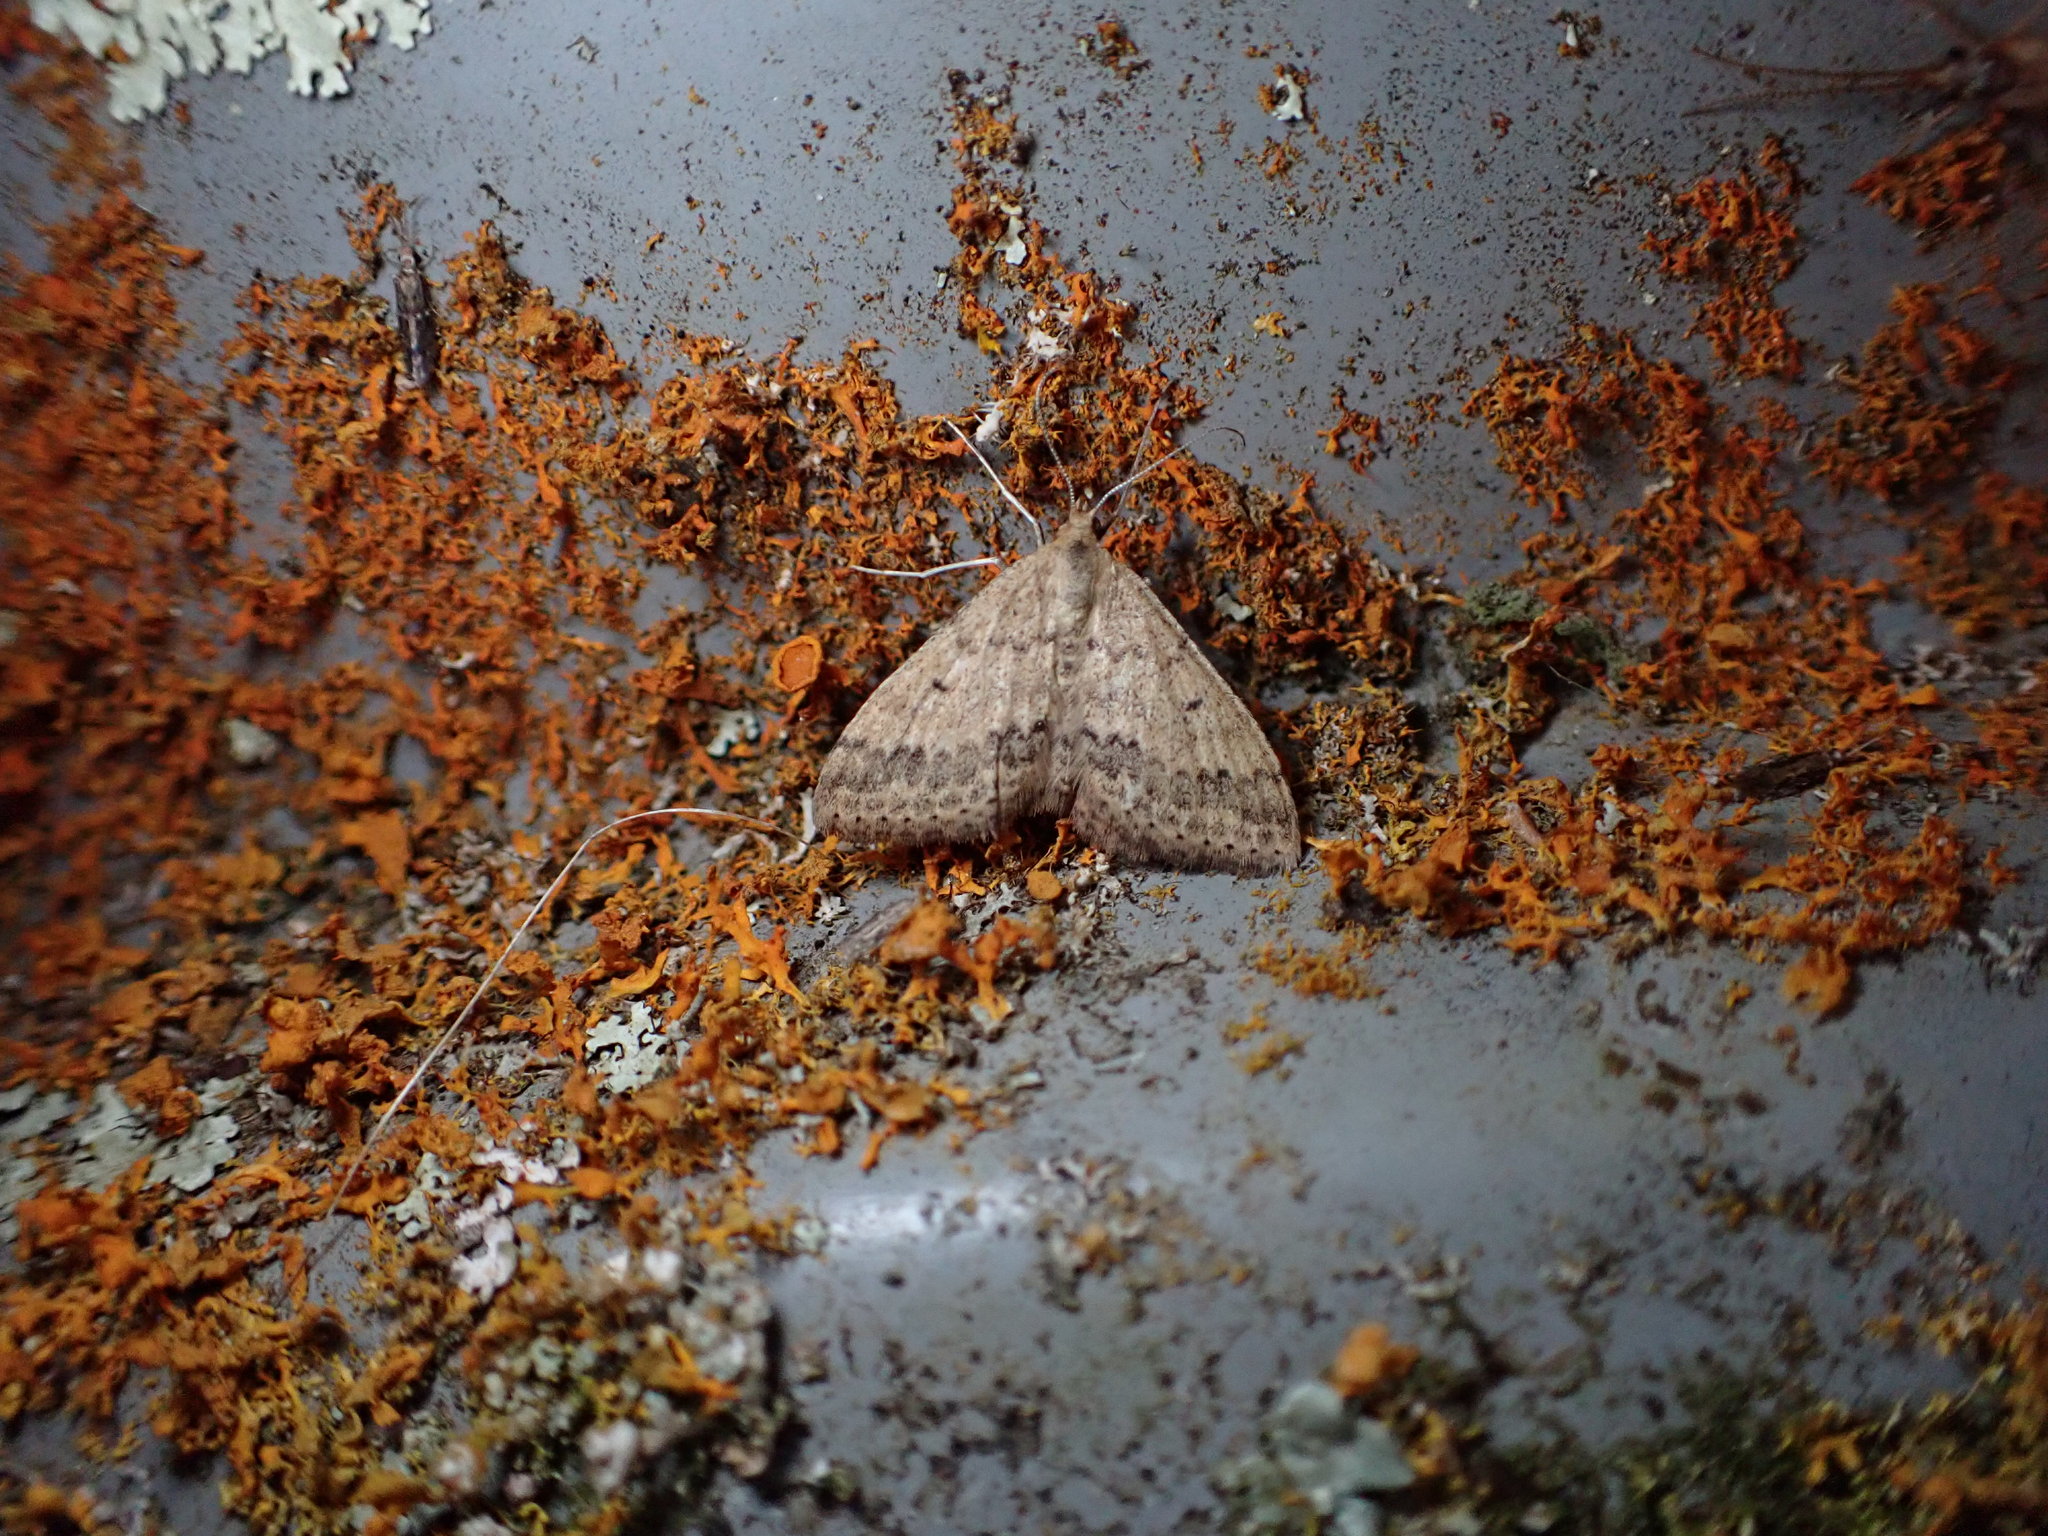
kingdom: Animalia
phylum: Arthropoda
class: Insecta
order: Lepidoptera
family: Geometridae
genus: Scopula
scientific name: Scopula rubraria
